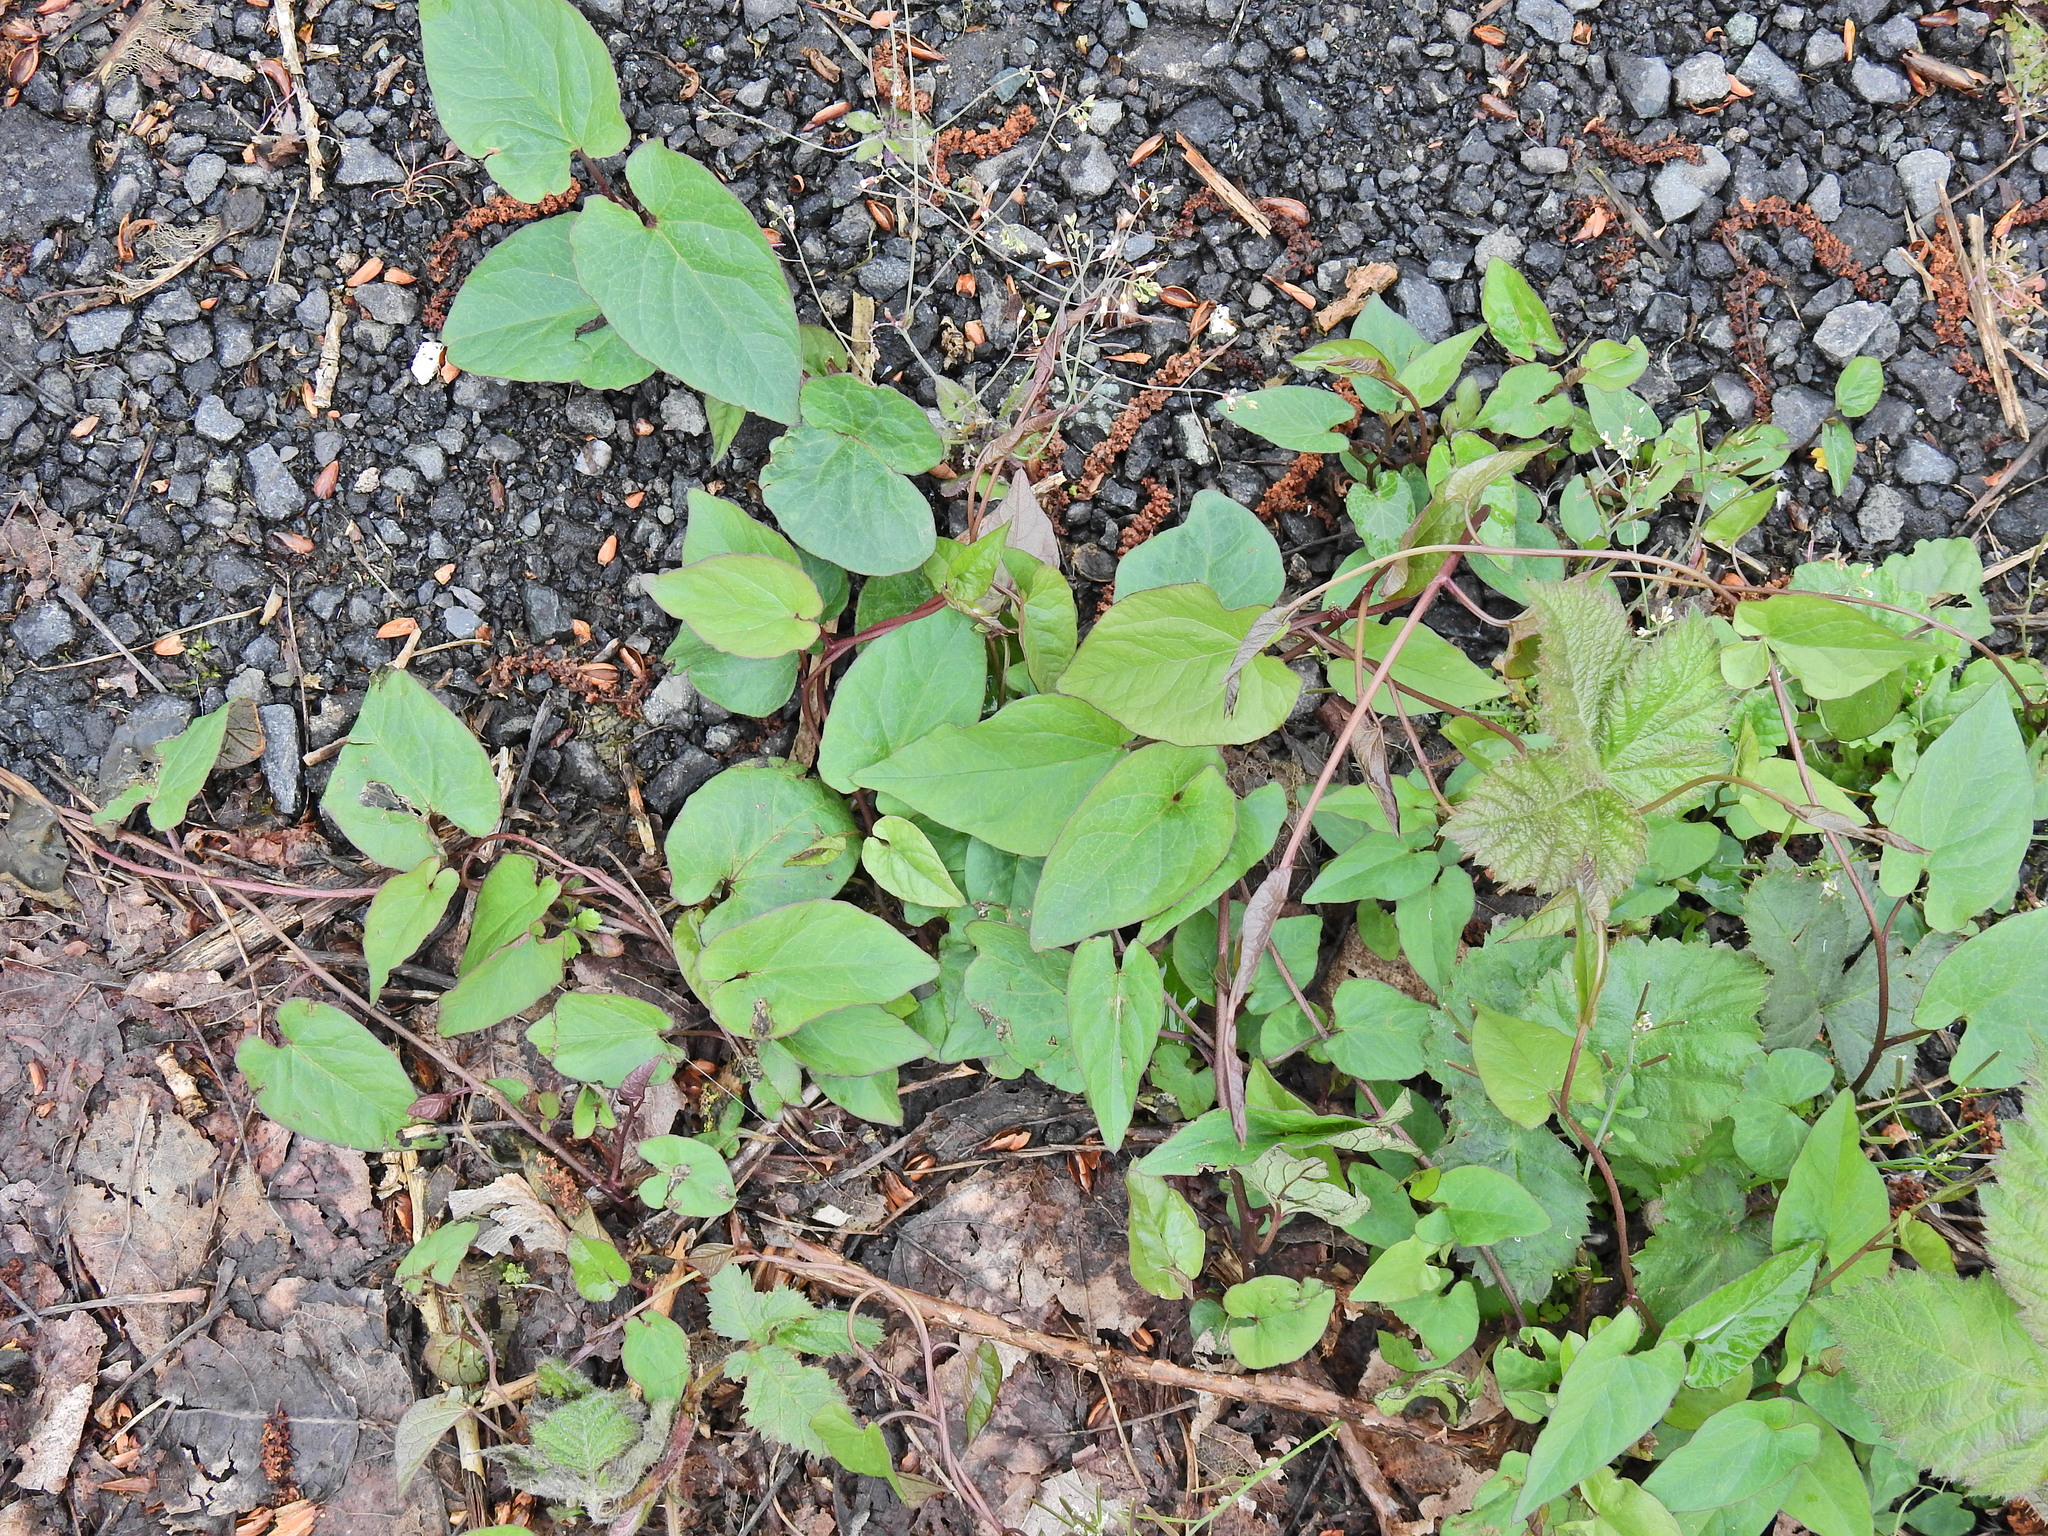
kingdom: Plantae
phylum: Tracheophyta
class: Magnoliopsida
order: Solanales
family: Convolvulaceae
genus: Calystegia
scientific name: Calystegia
